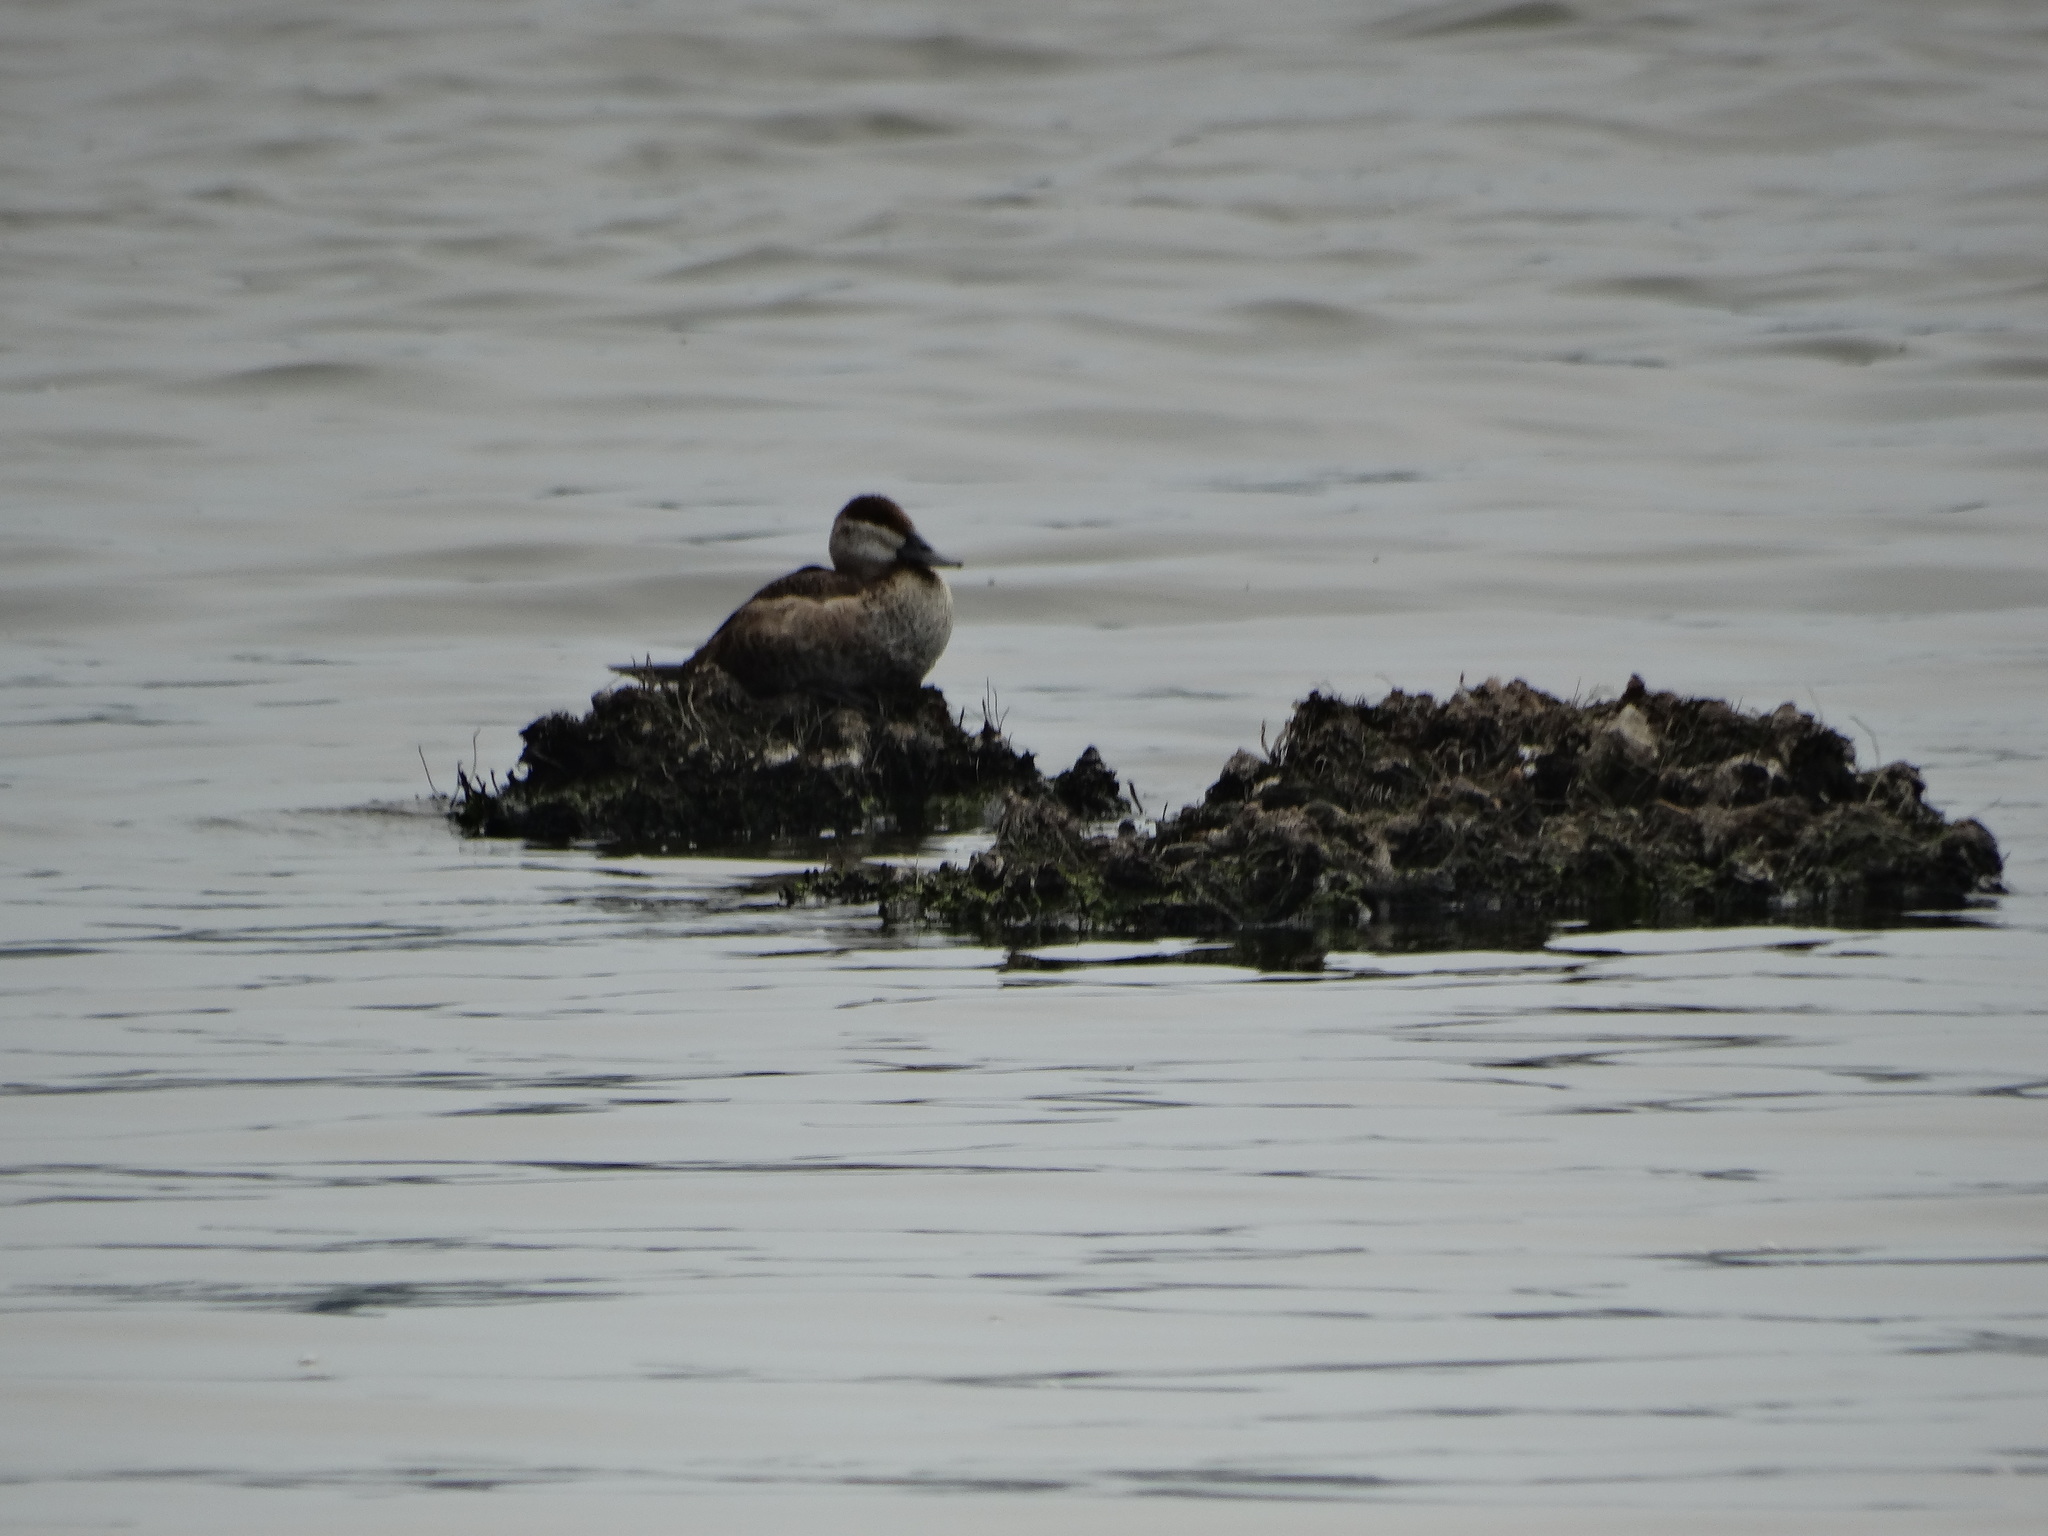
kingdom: Animalia
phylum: Chordata
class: Aves
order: Anseriformes
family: Anatidae
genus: Oxyura
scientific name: Oxyura jamaicensis
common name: Ruddy duck
